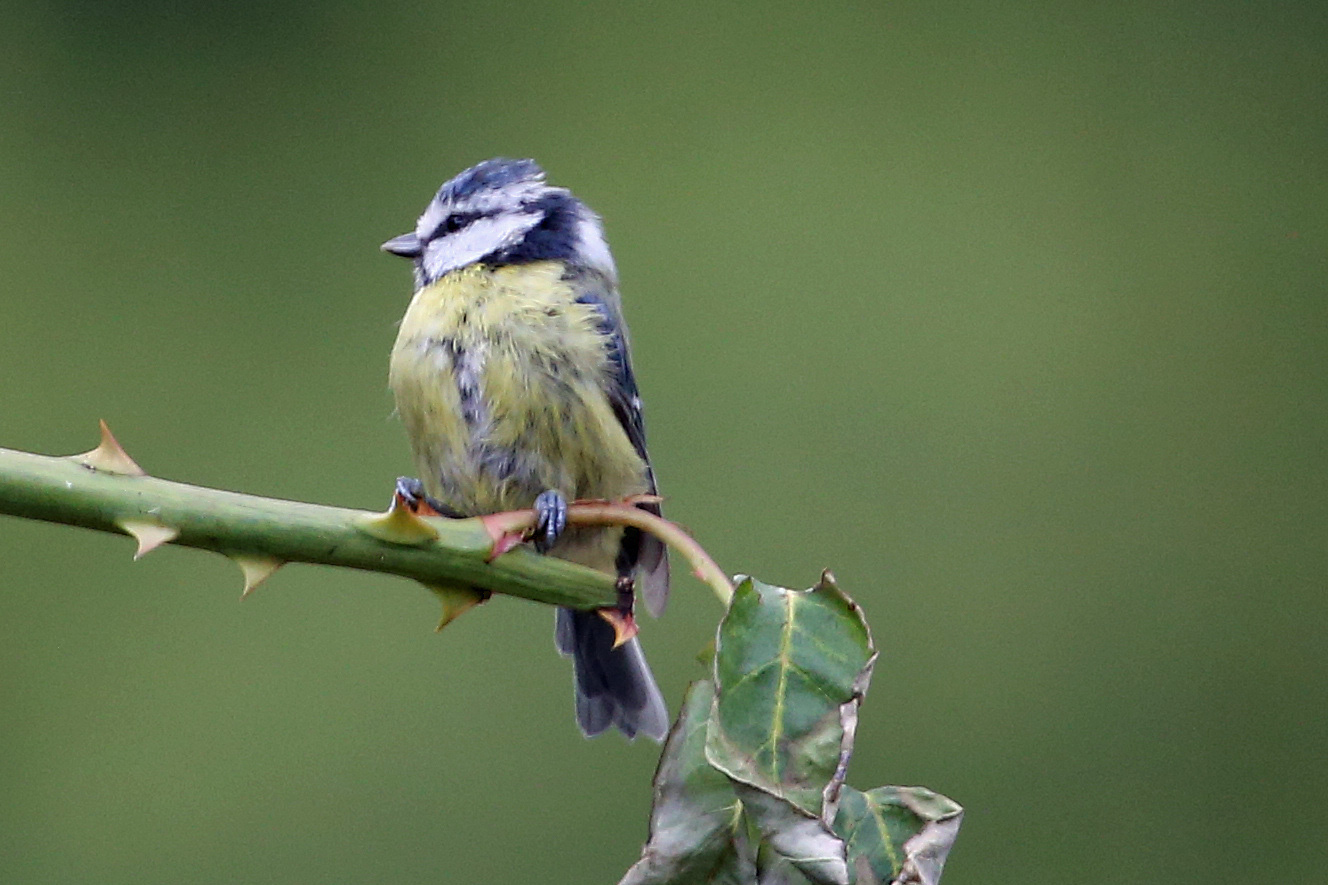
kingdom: Animalia
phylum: Chordata
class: Aves
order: Passeriformes
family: Paridae
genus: Cyanistes
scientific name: Cyanistes caeruleus
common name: Eurasian blue tit
